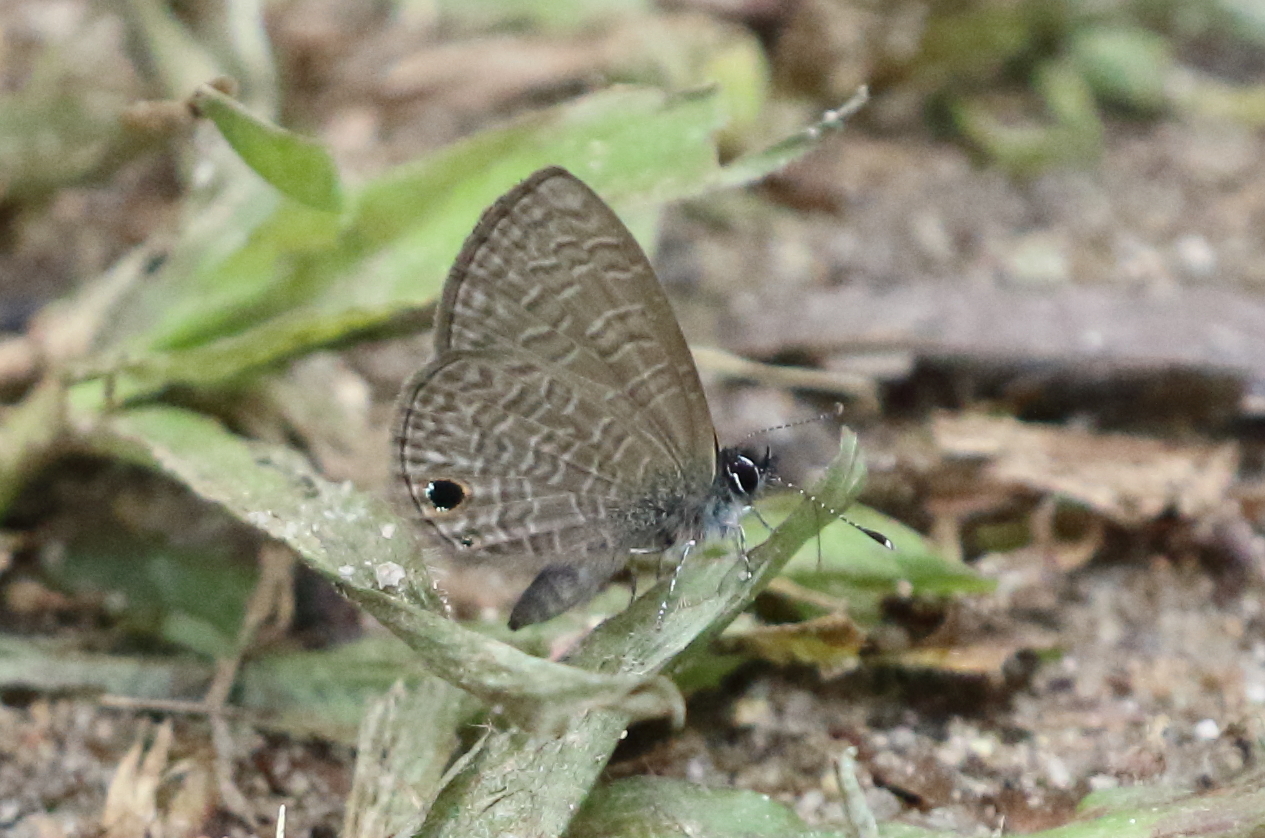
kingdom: Animalia
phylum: Arthropoda
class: Insecta
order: Lepidoptera
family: Lycaenidae
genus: Prosotas
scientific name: Prosotas dubiosa
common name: Tailless lineblue
